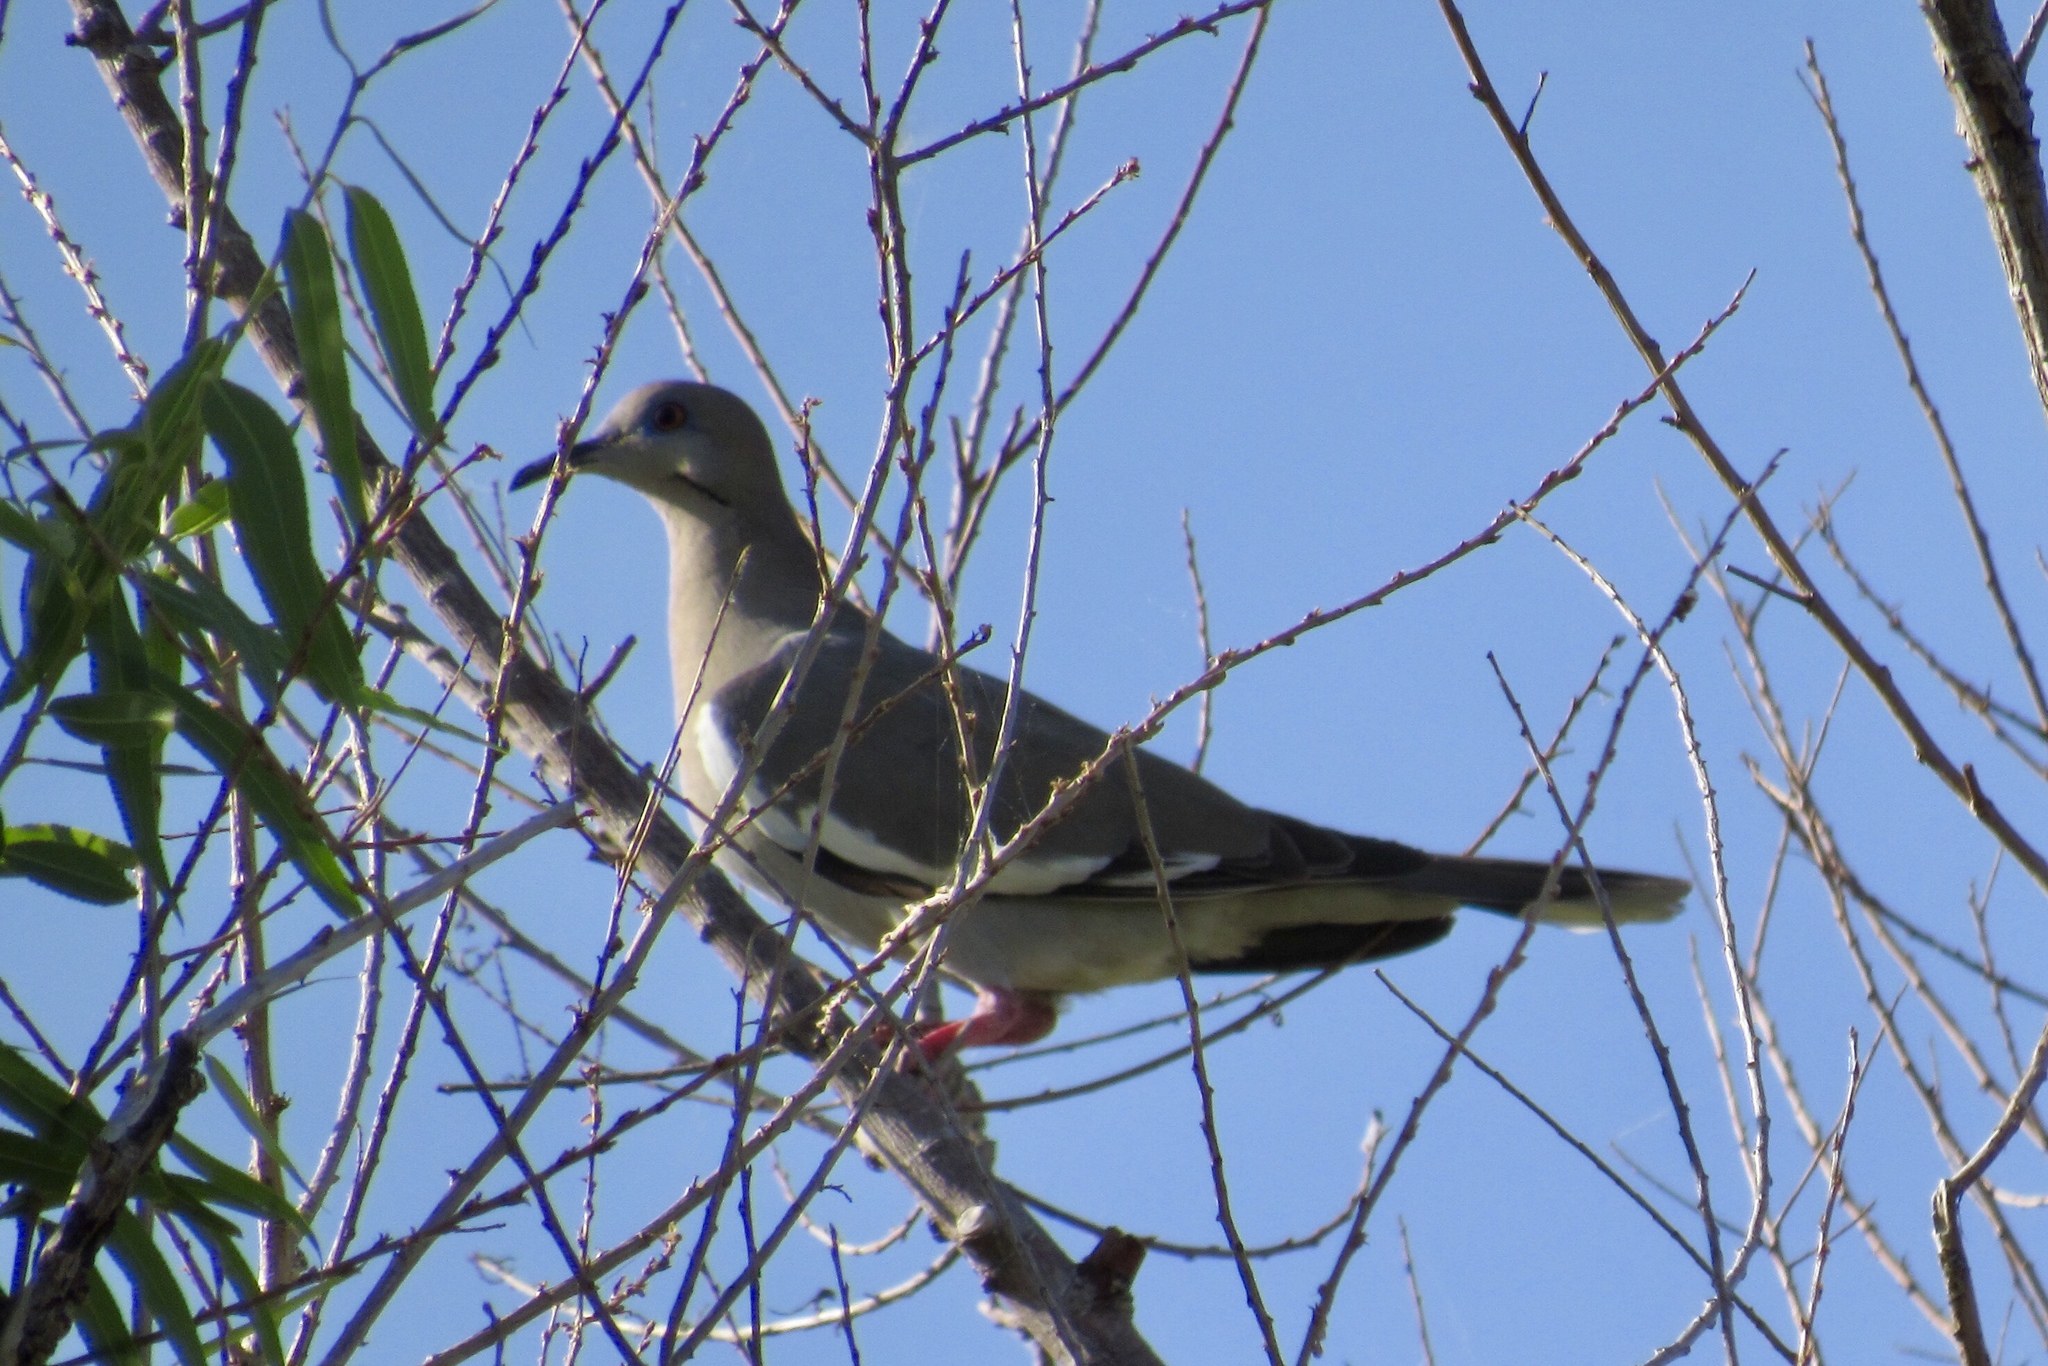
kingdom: Animalia
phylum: Chordata
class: Aves
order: Columbiformes
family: Columbidae
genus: Zenaida
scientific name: Zenaida asiatica
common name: White-winged dove
